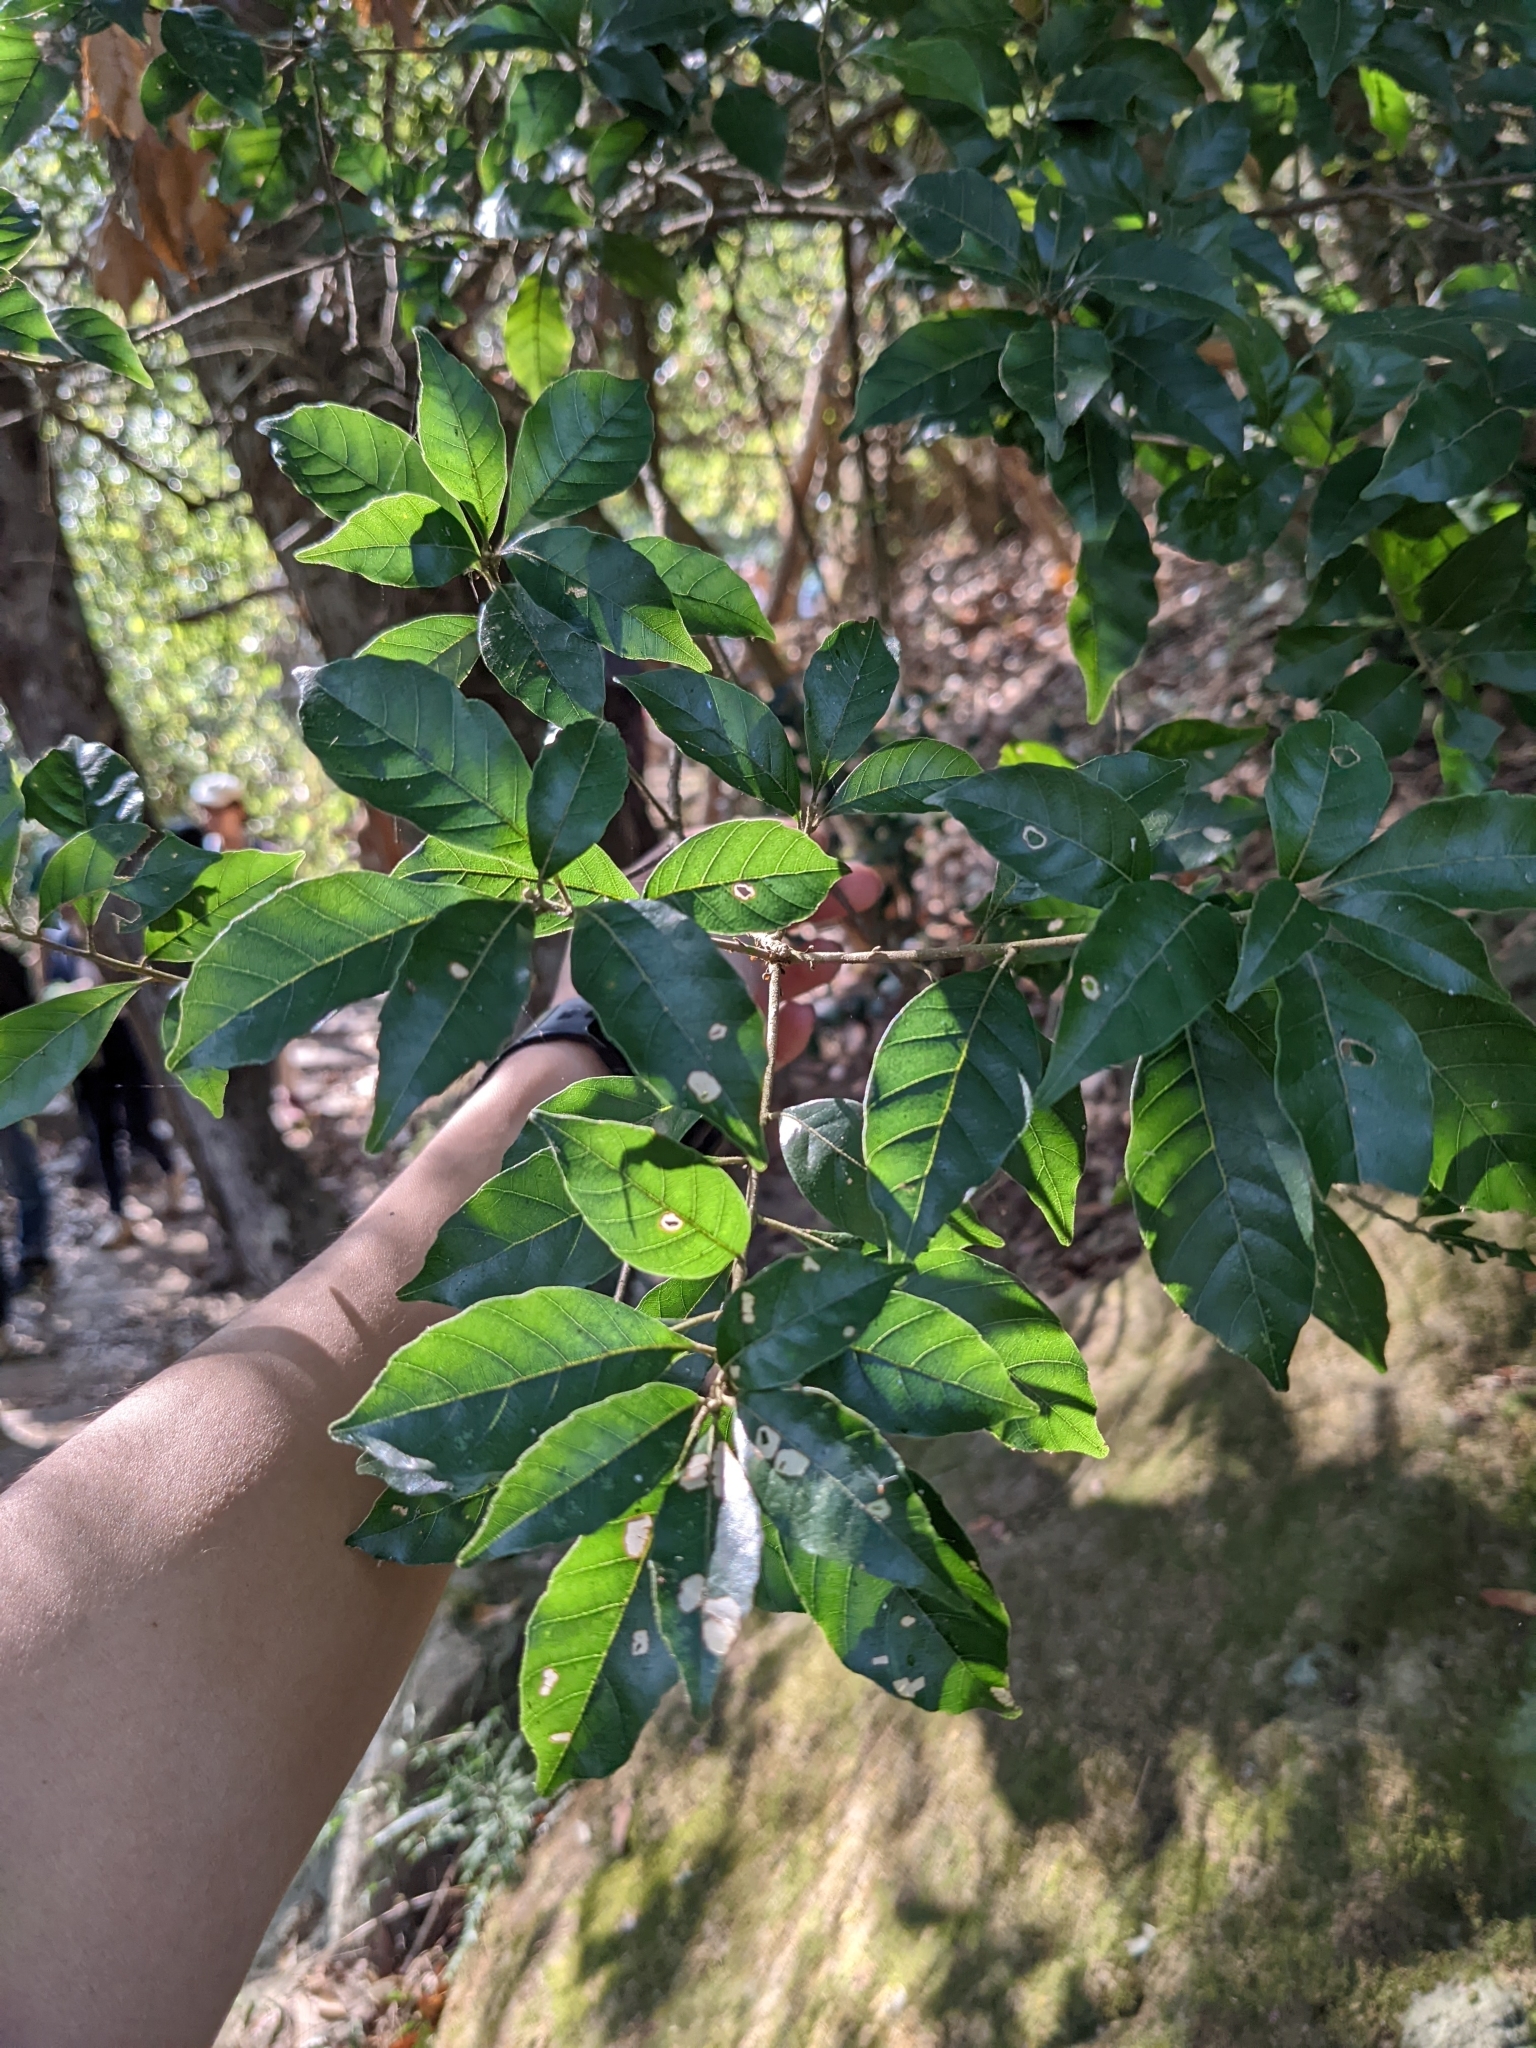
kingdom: Plantae
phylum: Tracheophyta
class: Magnoliopsida
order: Fagales
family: Fagaceae
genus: Lithocarpus
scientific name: Lithocarpus konishii
